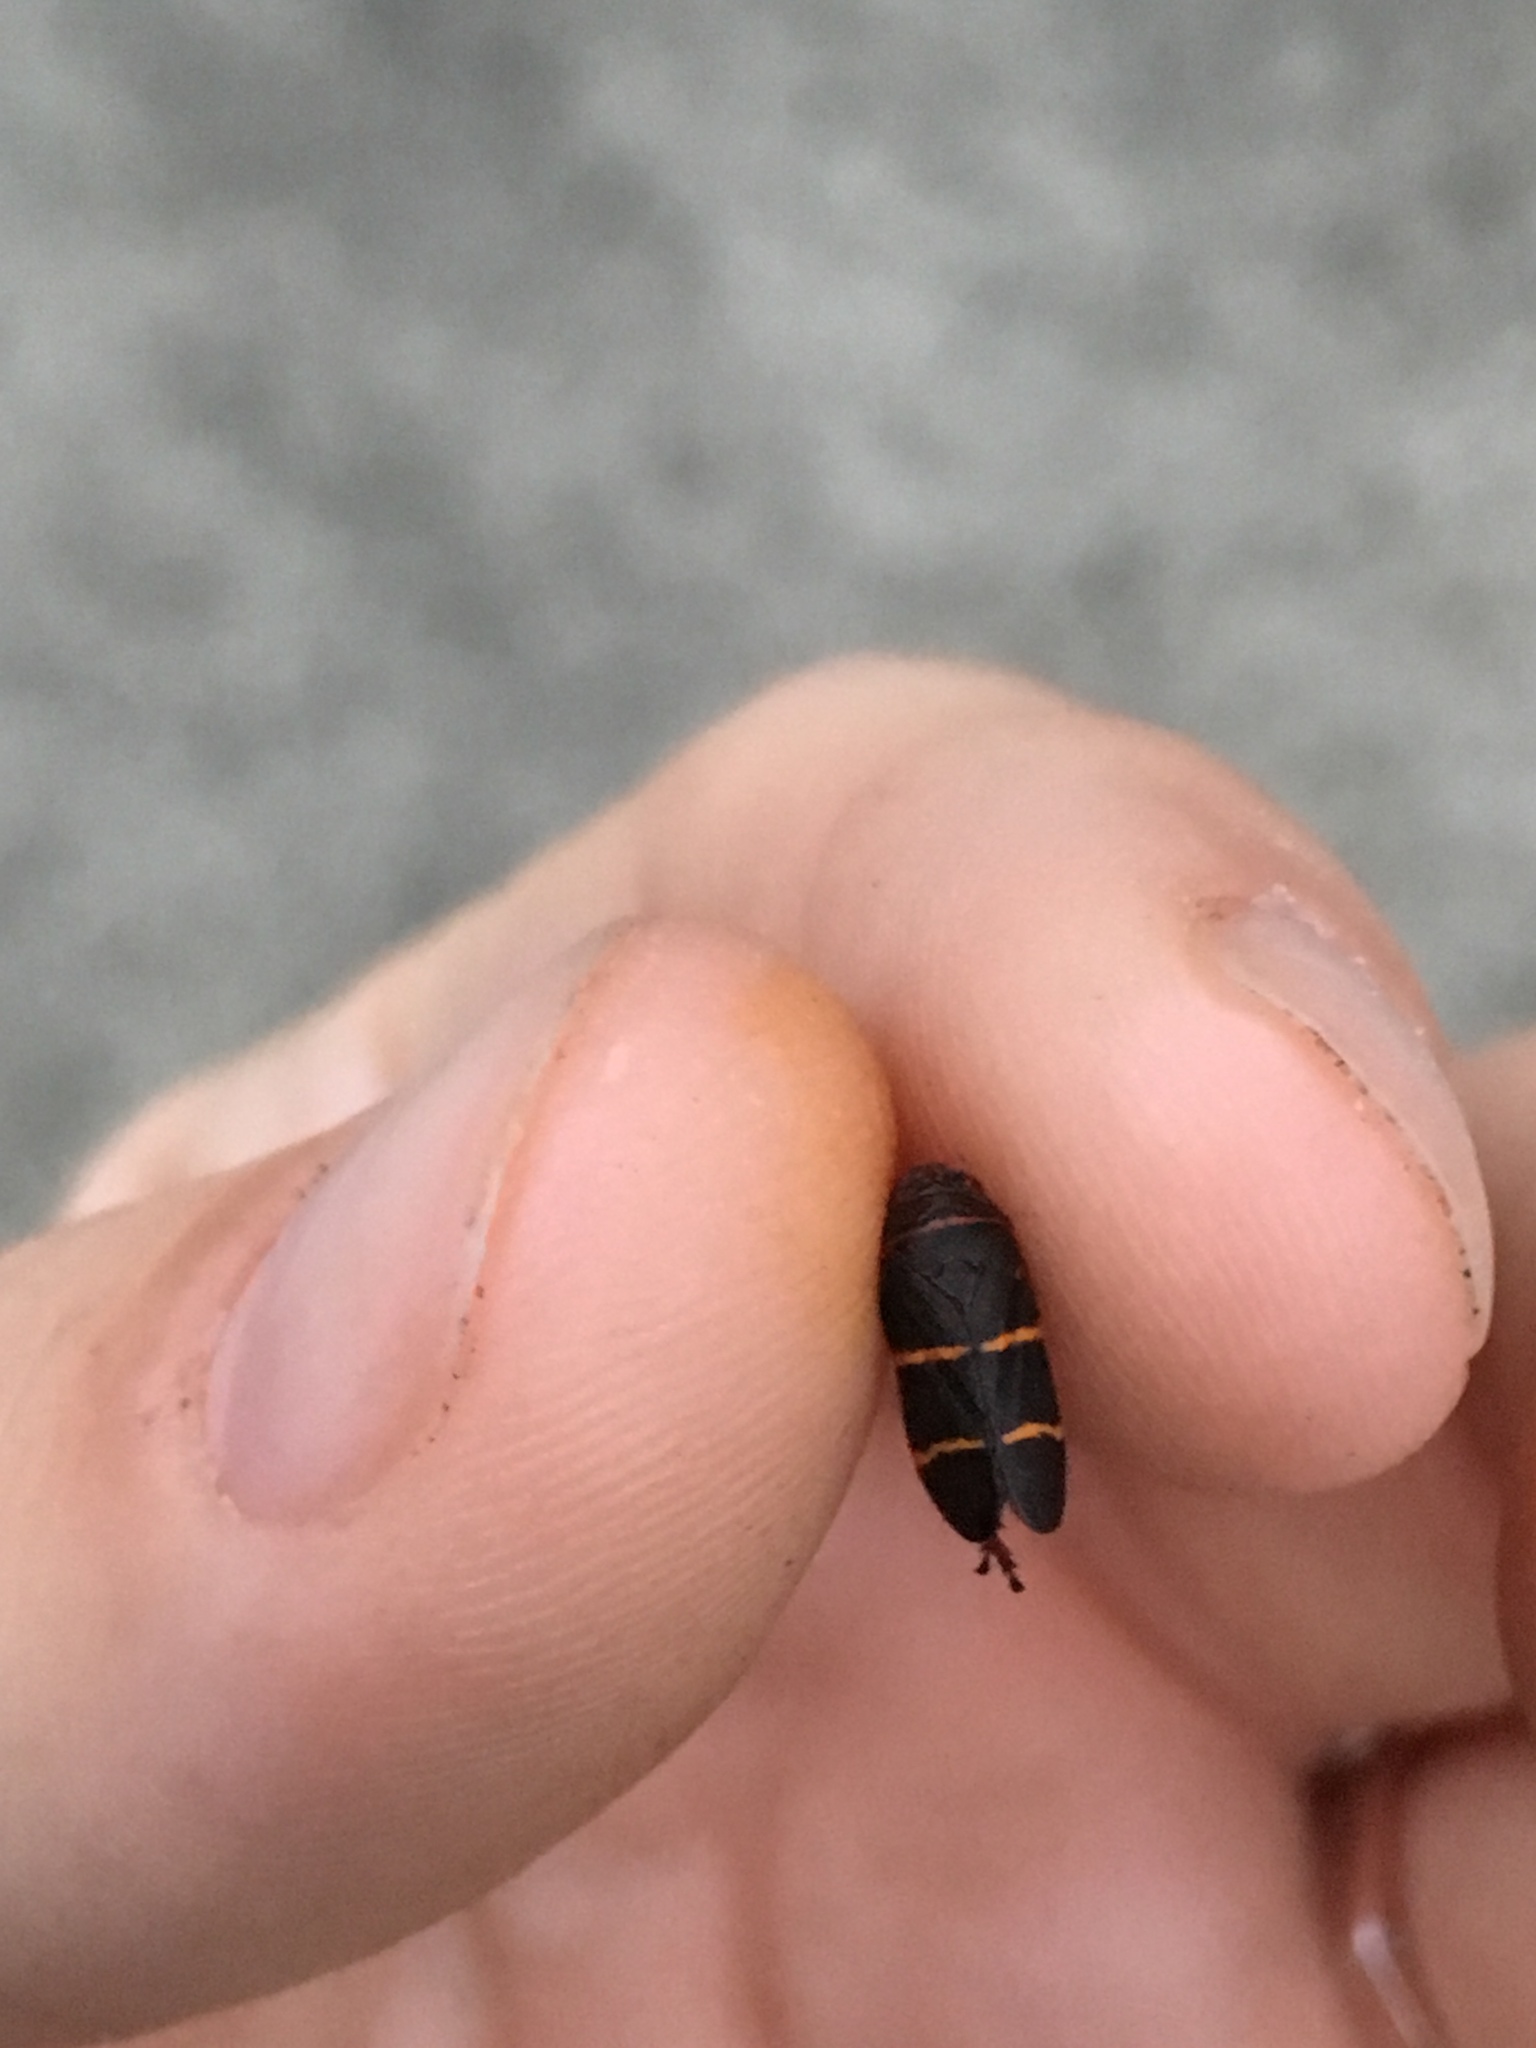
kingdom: Animalia
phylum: Arthropoda
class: Insecta
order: Hemiptera
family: Cercopidae
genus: Prosapia
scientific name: Prosapia bicincta
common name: Twolined spittlebug
